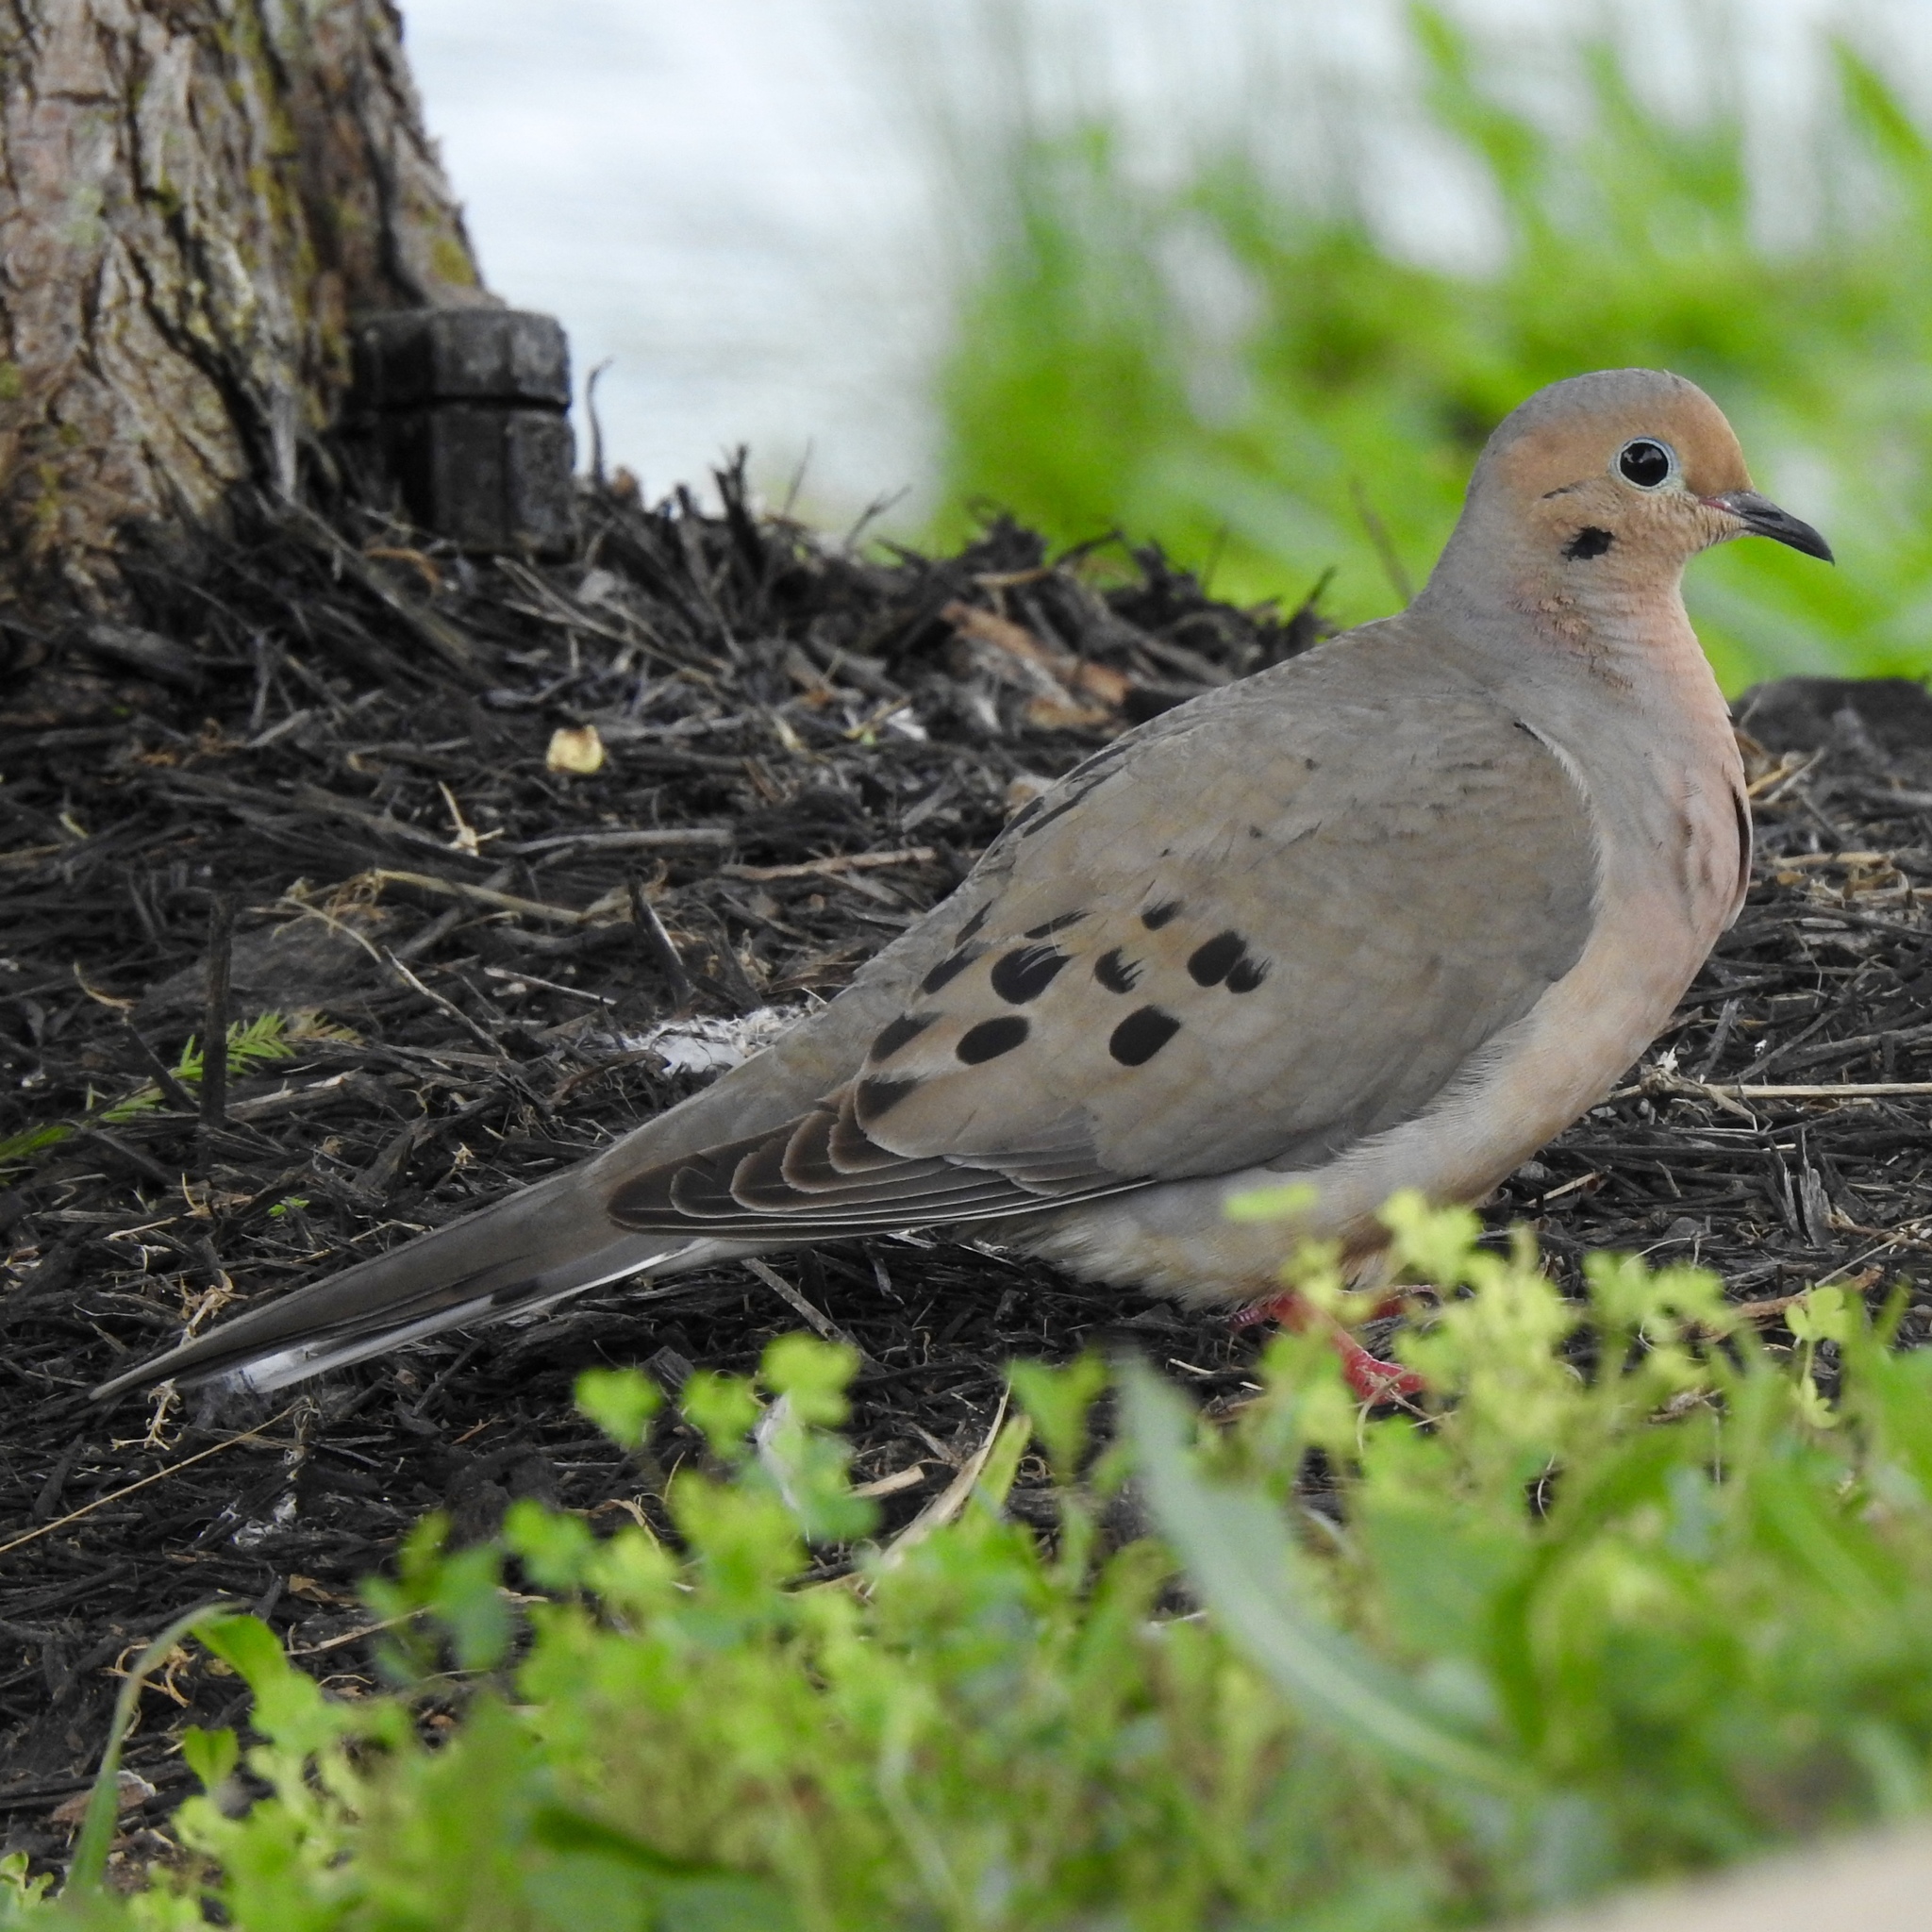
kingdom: Animalia
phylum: Chordata
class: Aves
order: Columbiformes
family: Columbidae
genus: Zenaida
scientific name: Zenaida macroura
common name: Mourning dove
